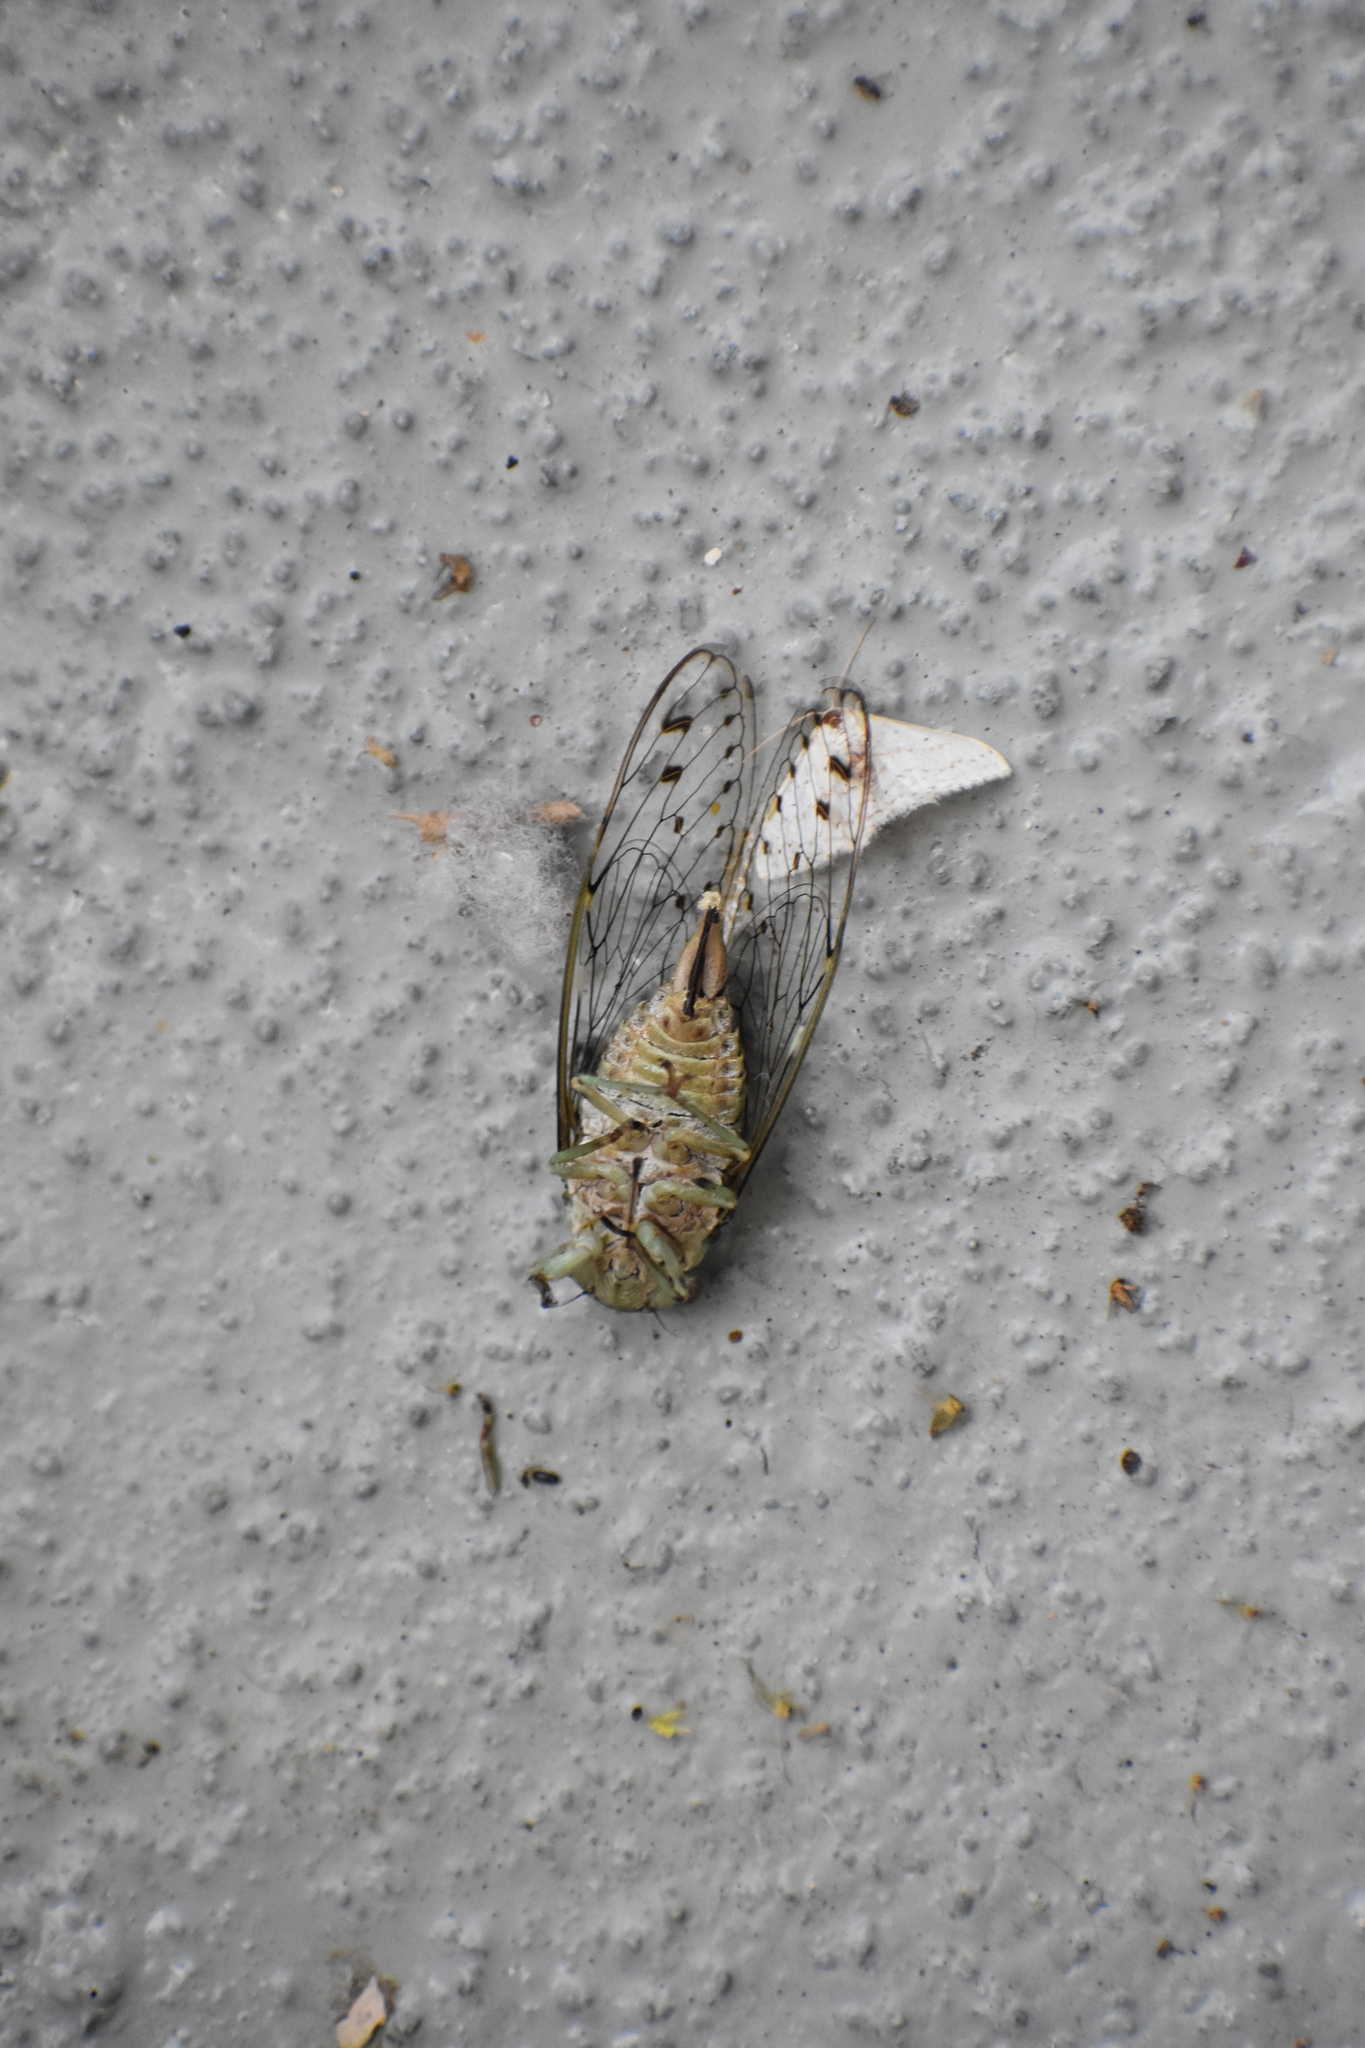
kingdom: Animalia
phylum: Arthropoda
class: Insecta
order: Hemiptera
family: Cicadidae
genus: Neocicada
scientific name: Neocicada hieroglyphica
